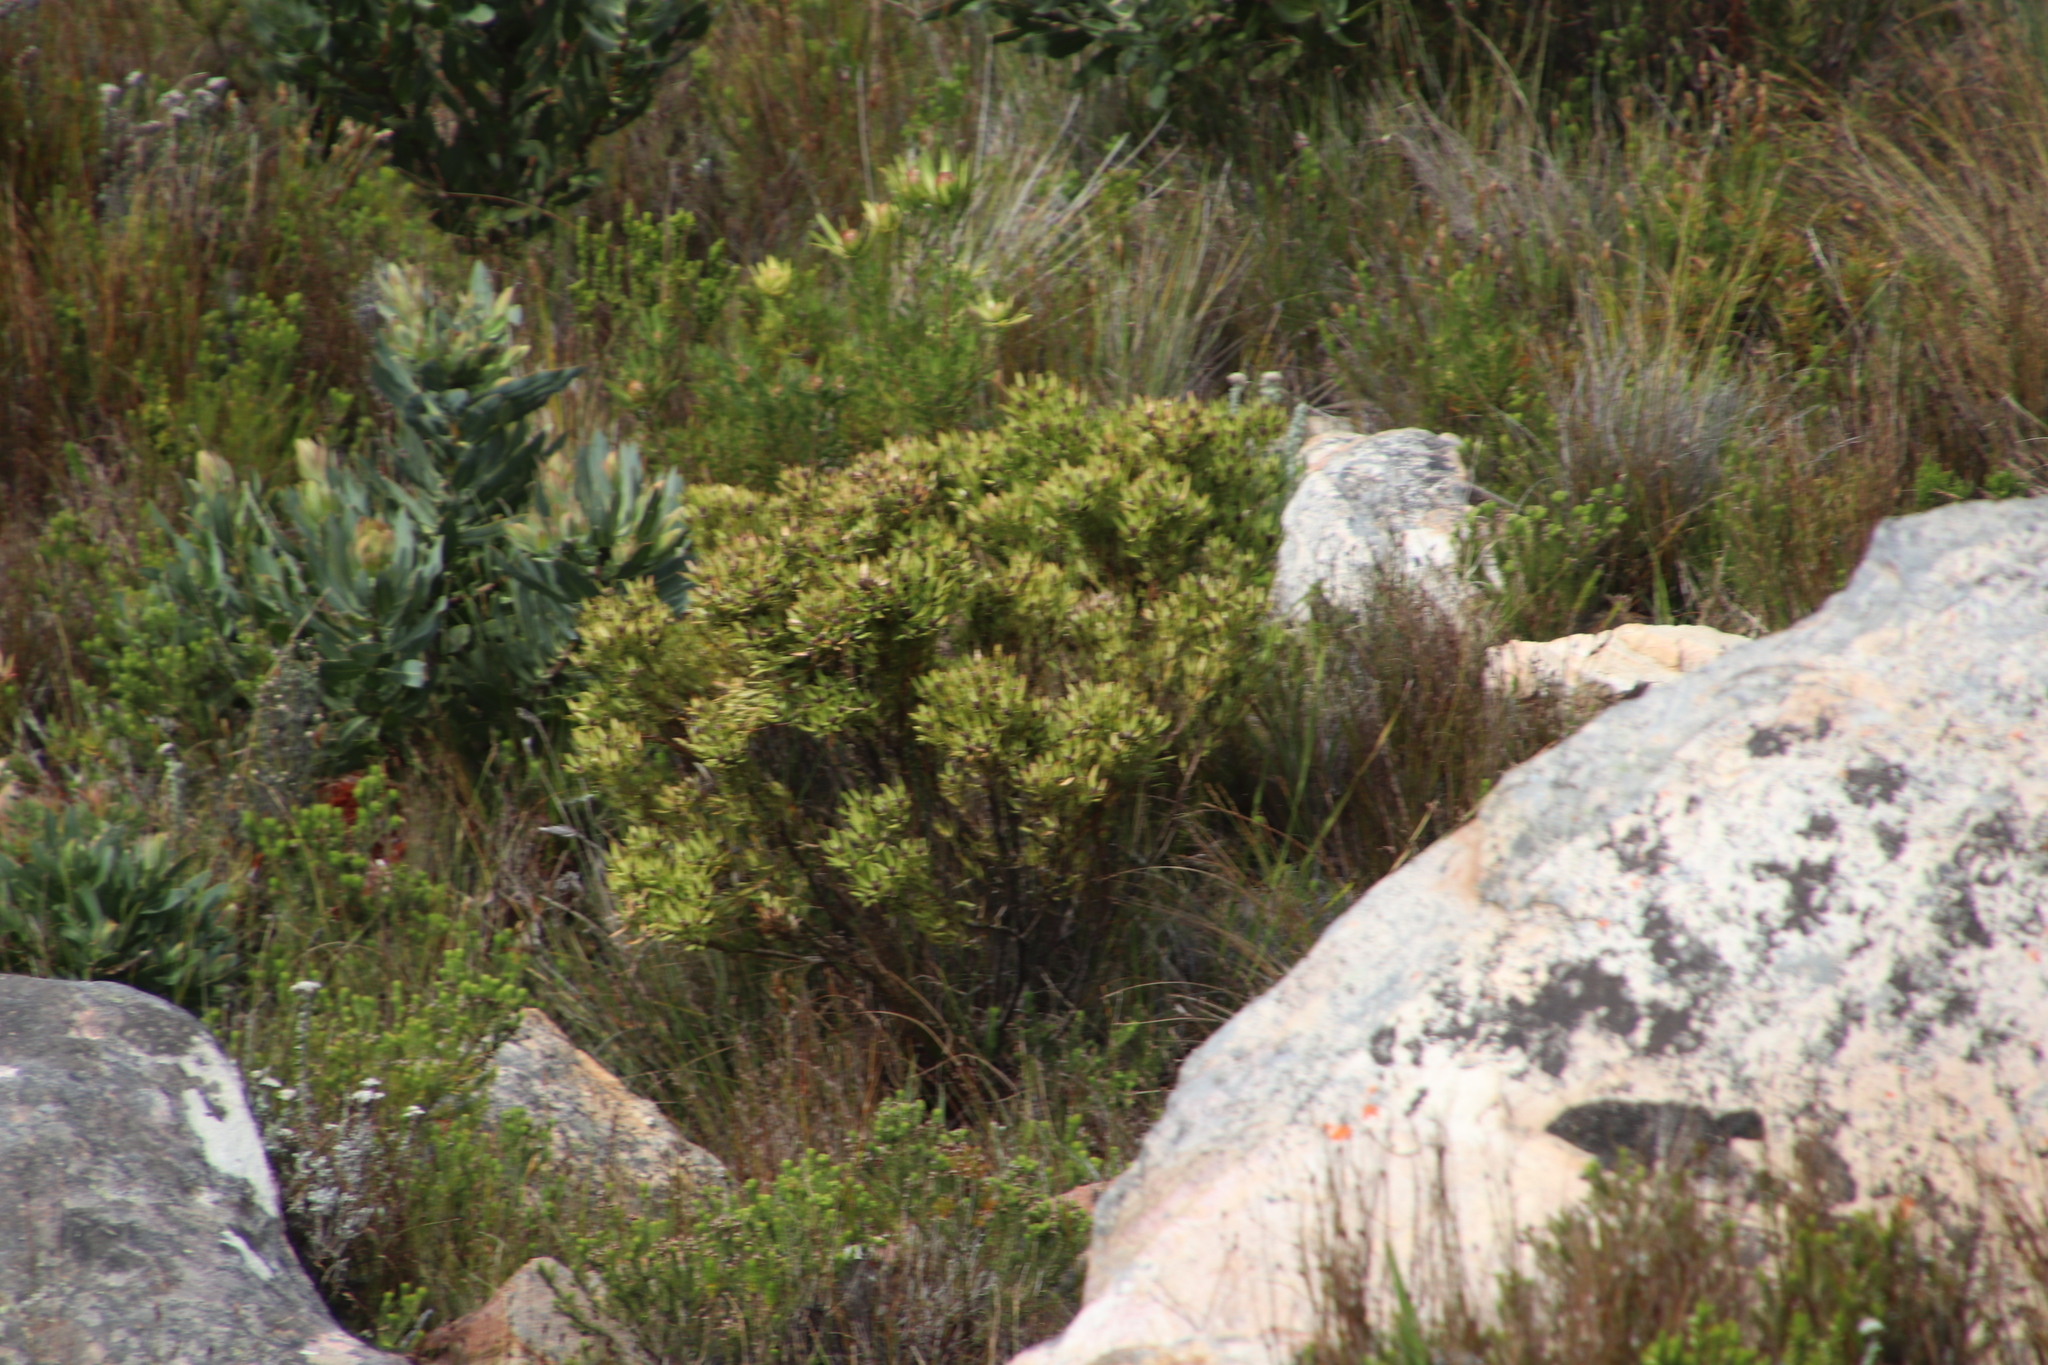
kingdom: Plantae
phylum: Tracheophyta
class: Magnoliopsida
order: Proteales
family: Proteaceae
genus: Leucadendron
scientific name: Leucadendron spissifolium
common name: Spear-leaf conebush
